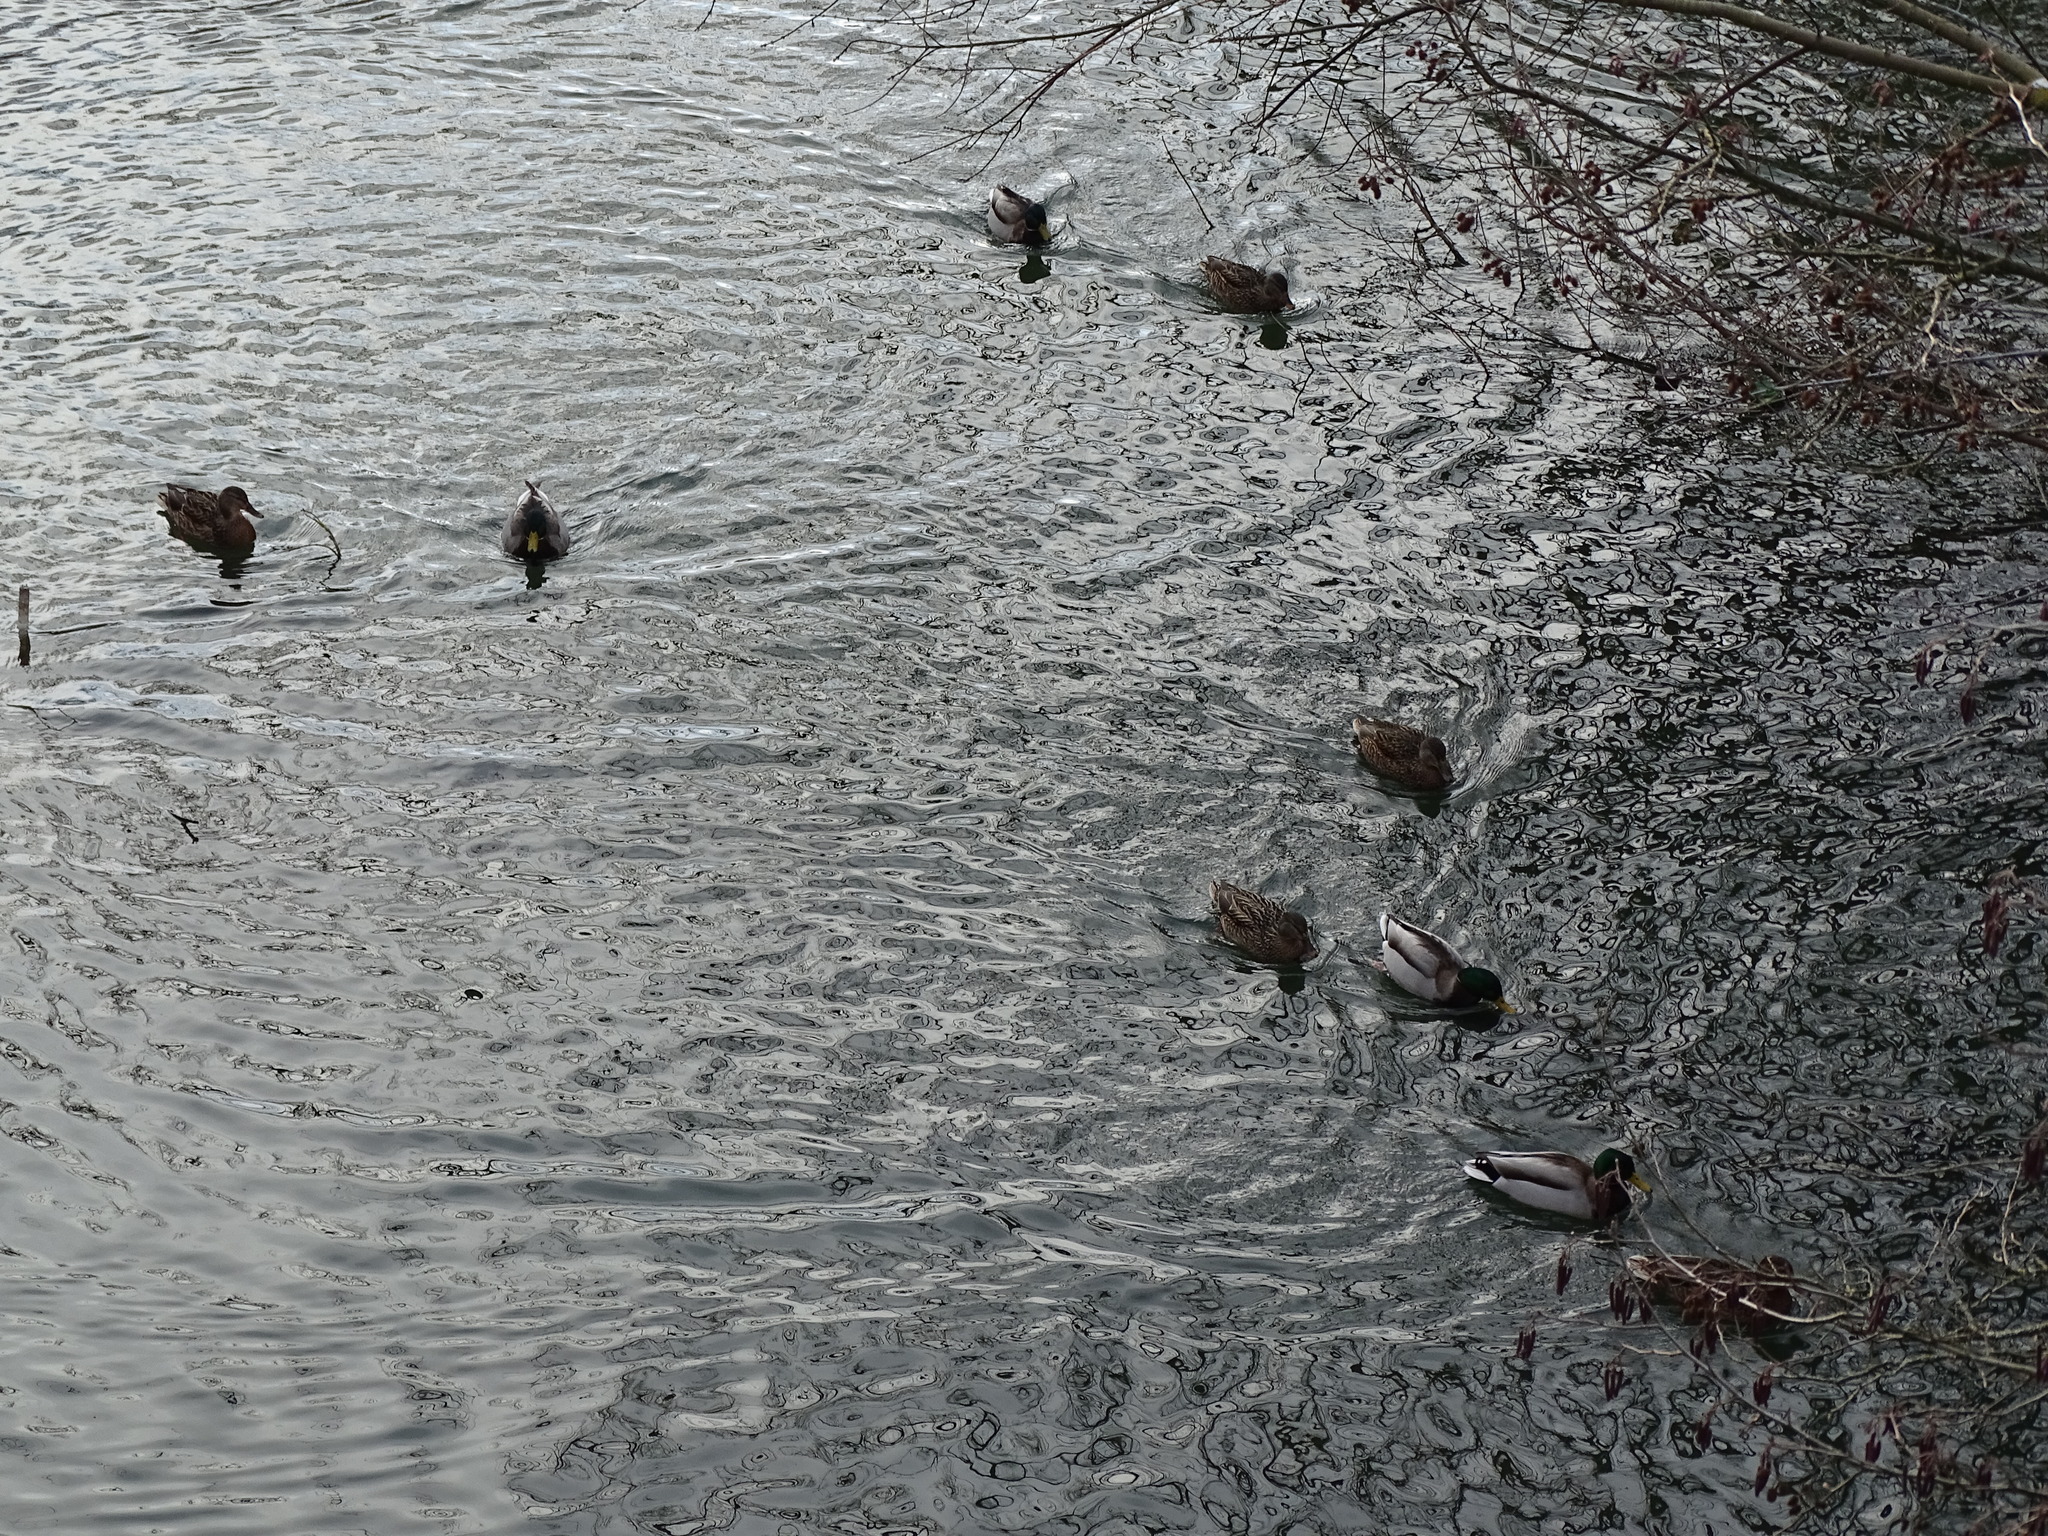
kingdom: Animalia
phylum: Chordata
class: Aves
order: Anseriformes
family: Anatidae
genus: Anas
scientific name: Anas platyrhynchos
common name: Mallard
